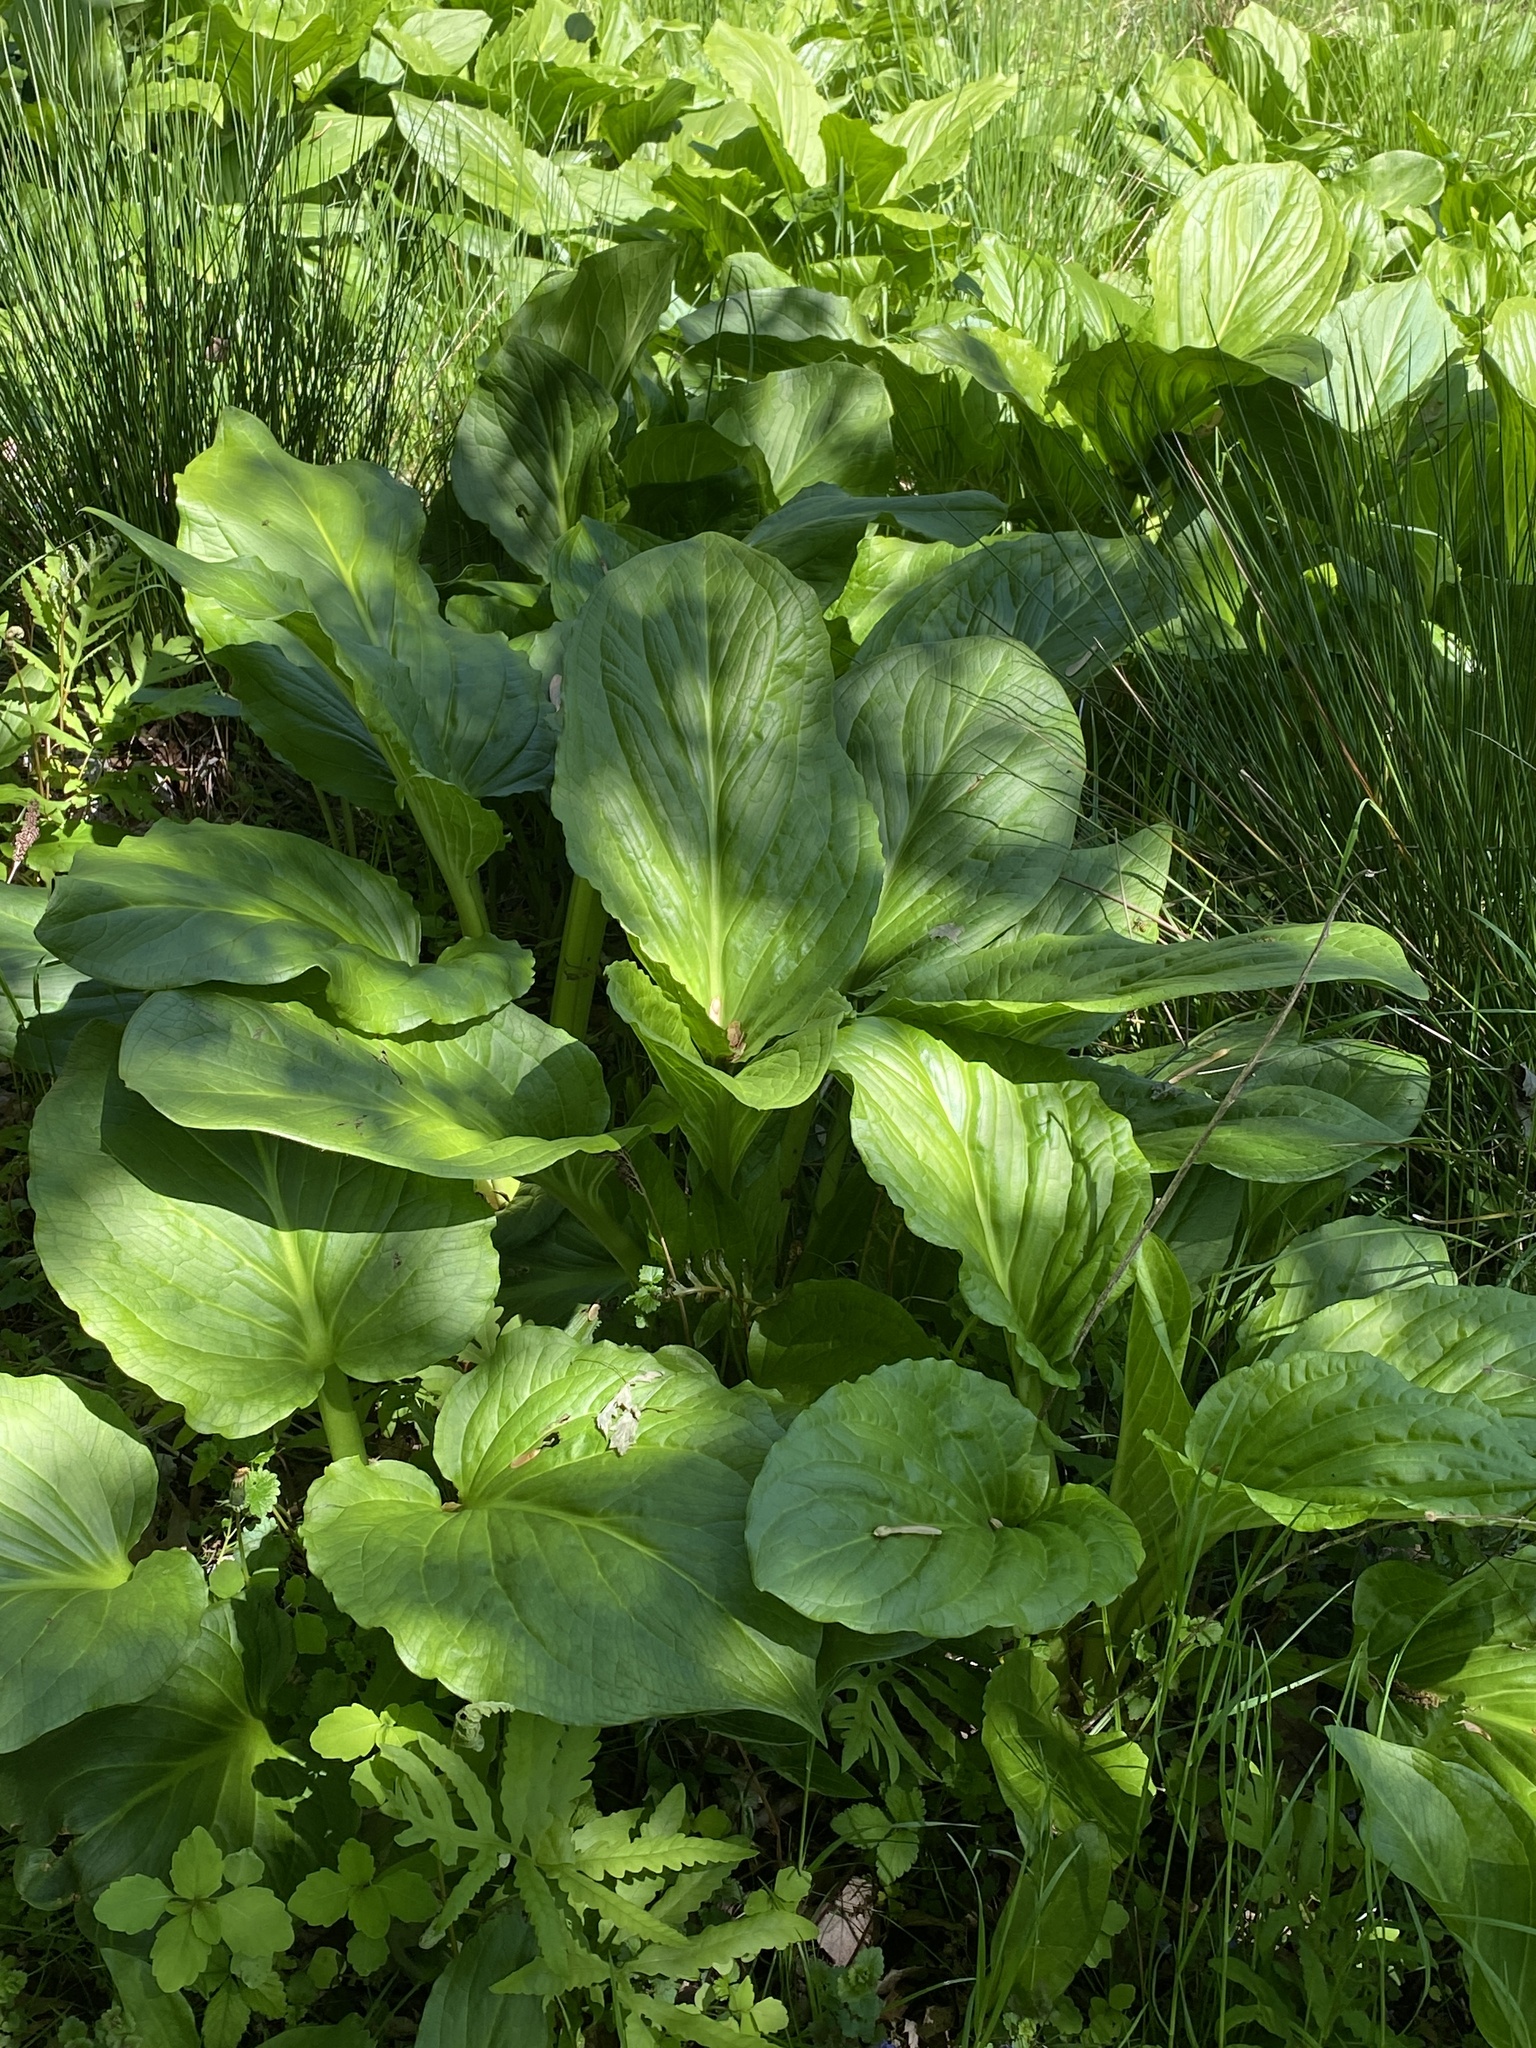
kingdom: Plantae
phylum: Tracheophyta
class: Liliopsida
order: Alismatales
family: Araceae
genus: Symplocarpus
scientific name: Symplocarpus foetidus
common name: Eastern skunk cabbage
